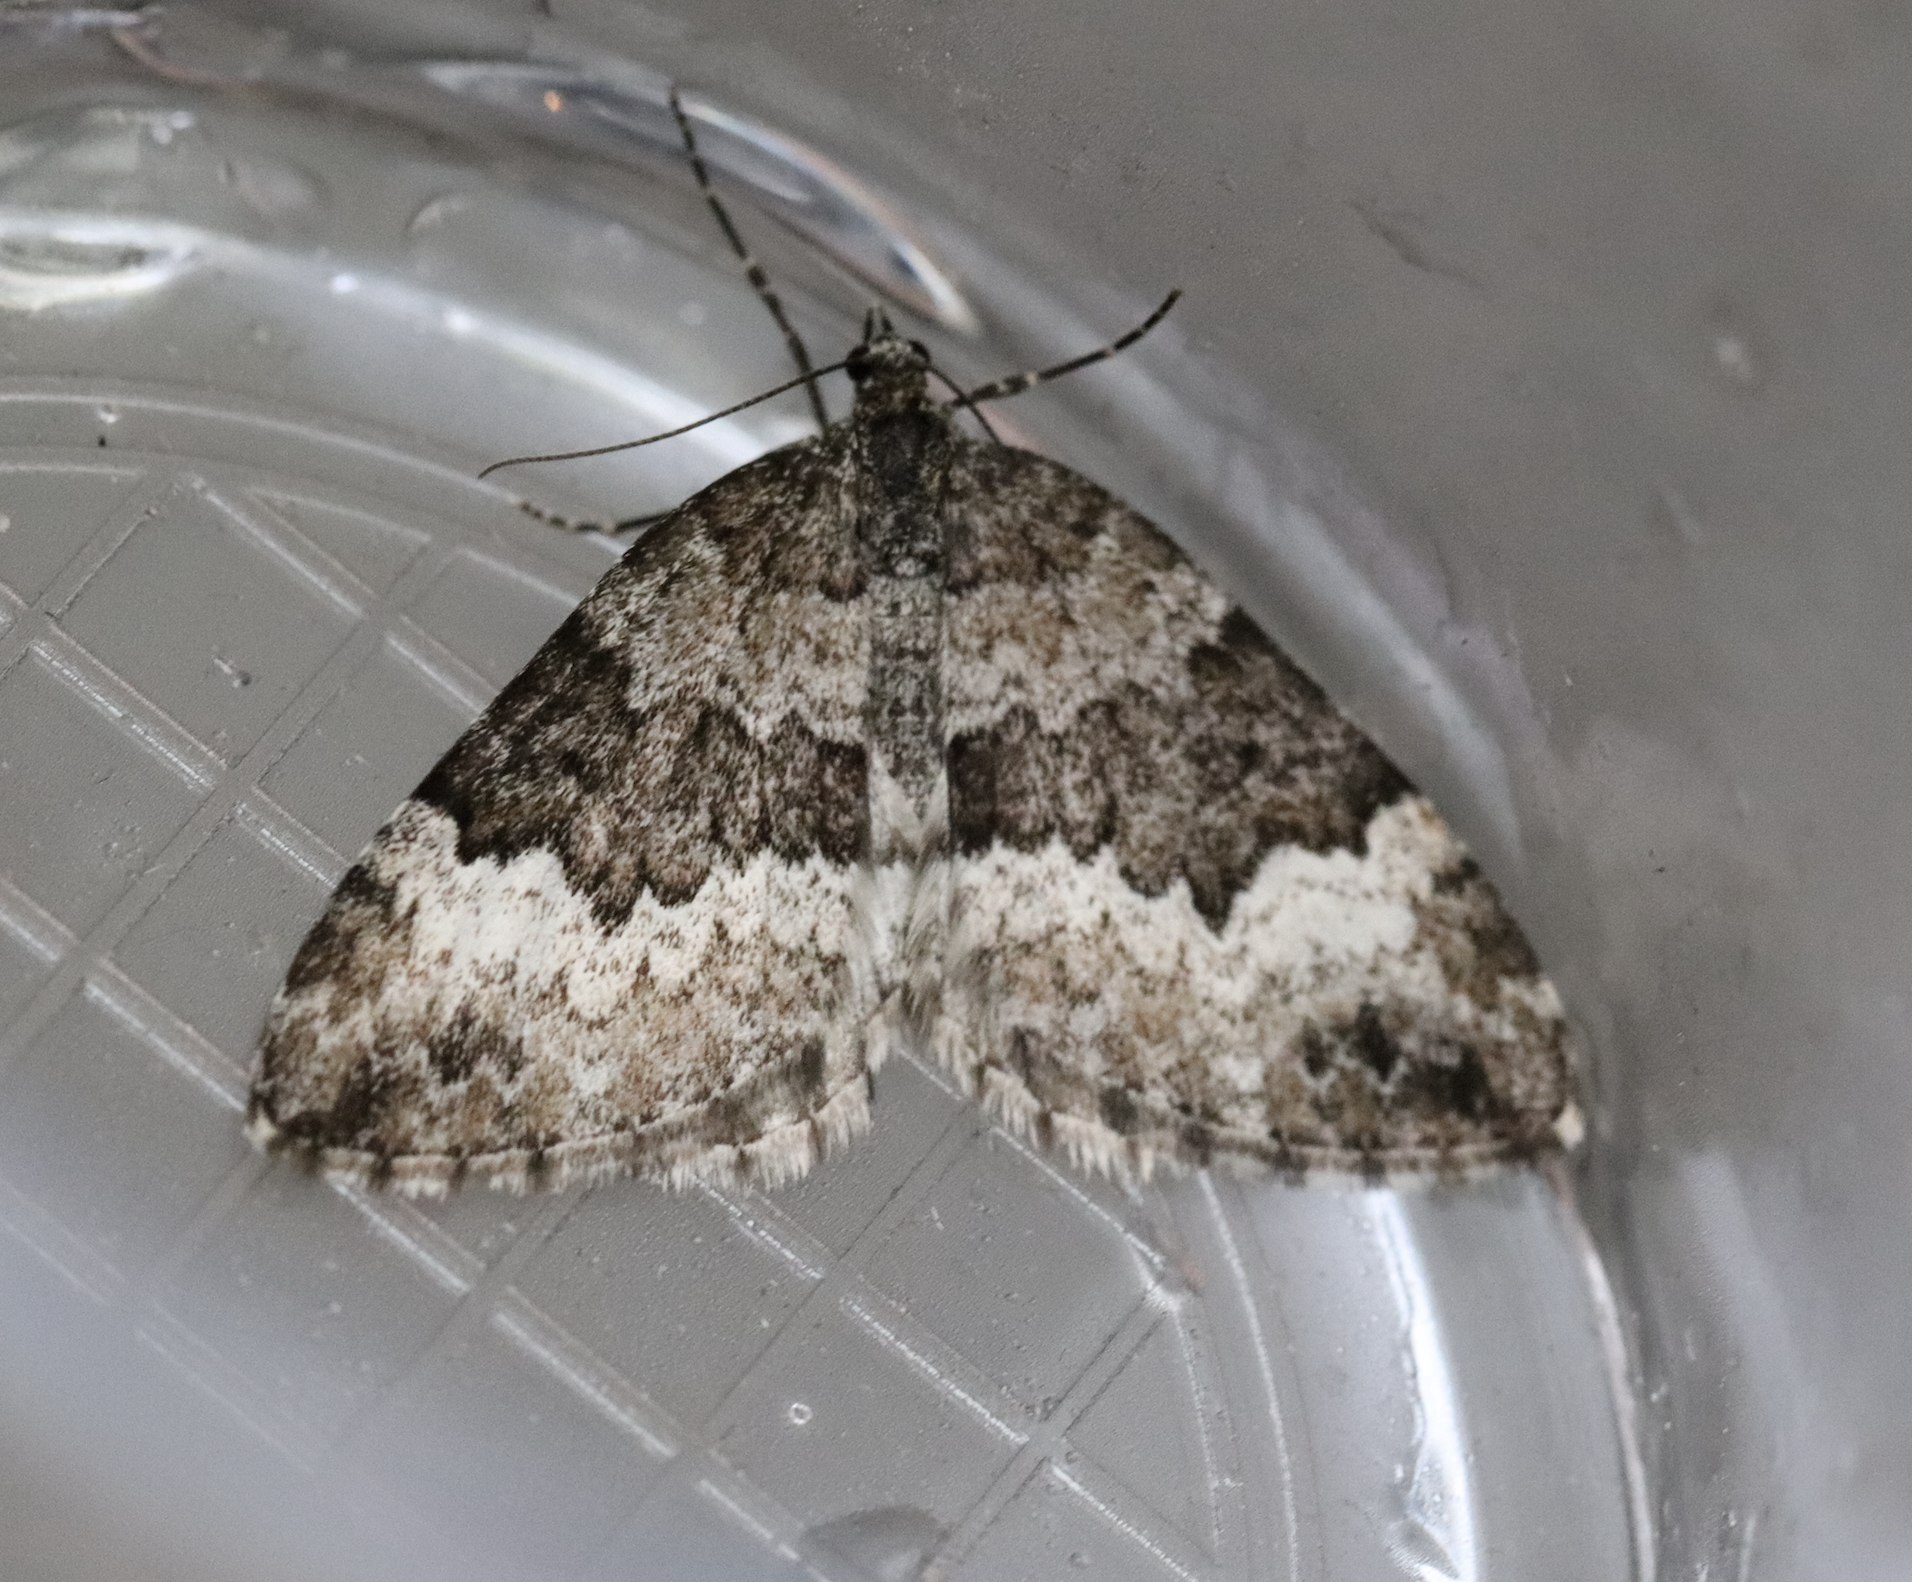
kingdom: Animalia
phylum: Arthropoda
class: Insecta
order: Lepidoptera
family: Geometridae
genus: Colostygia
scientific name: Colostygia turbata
